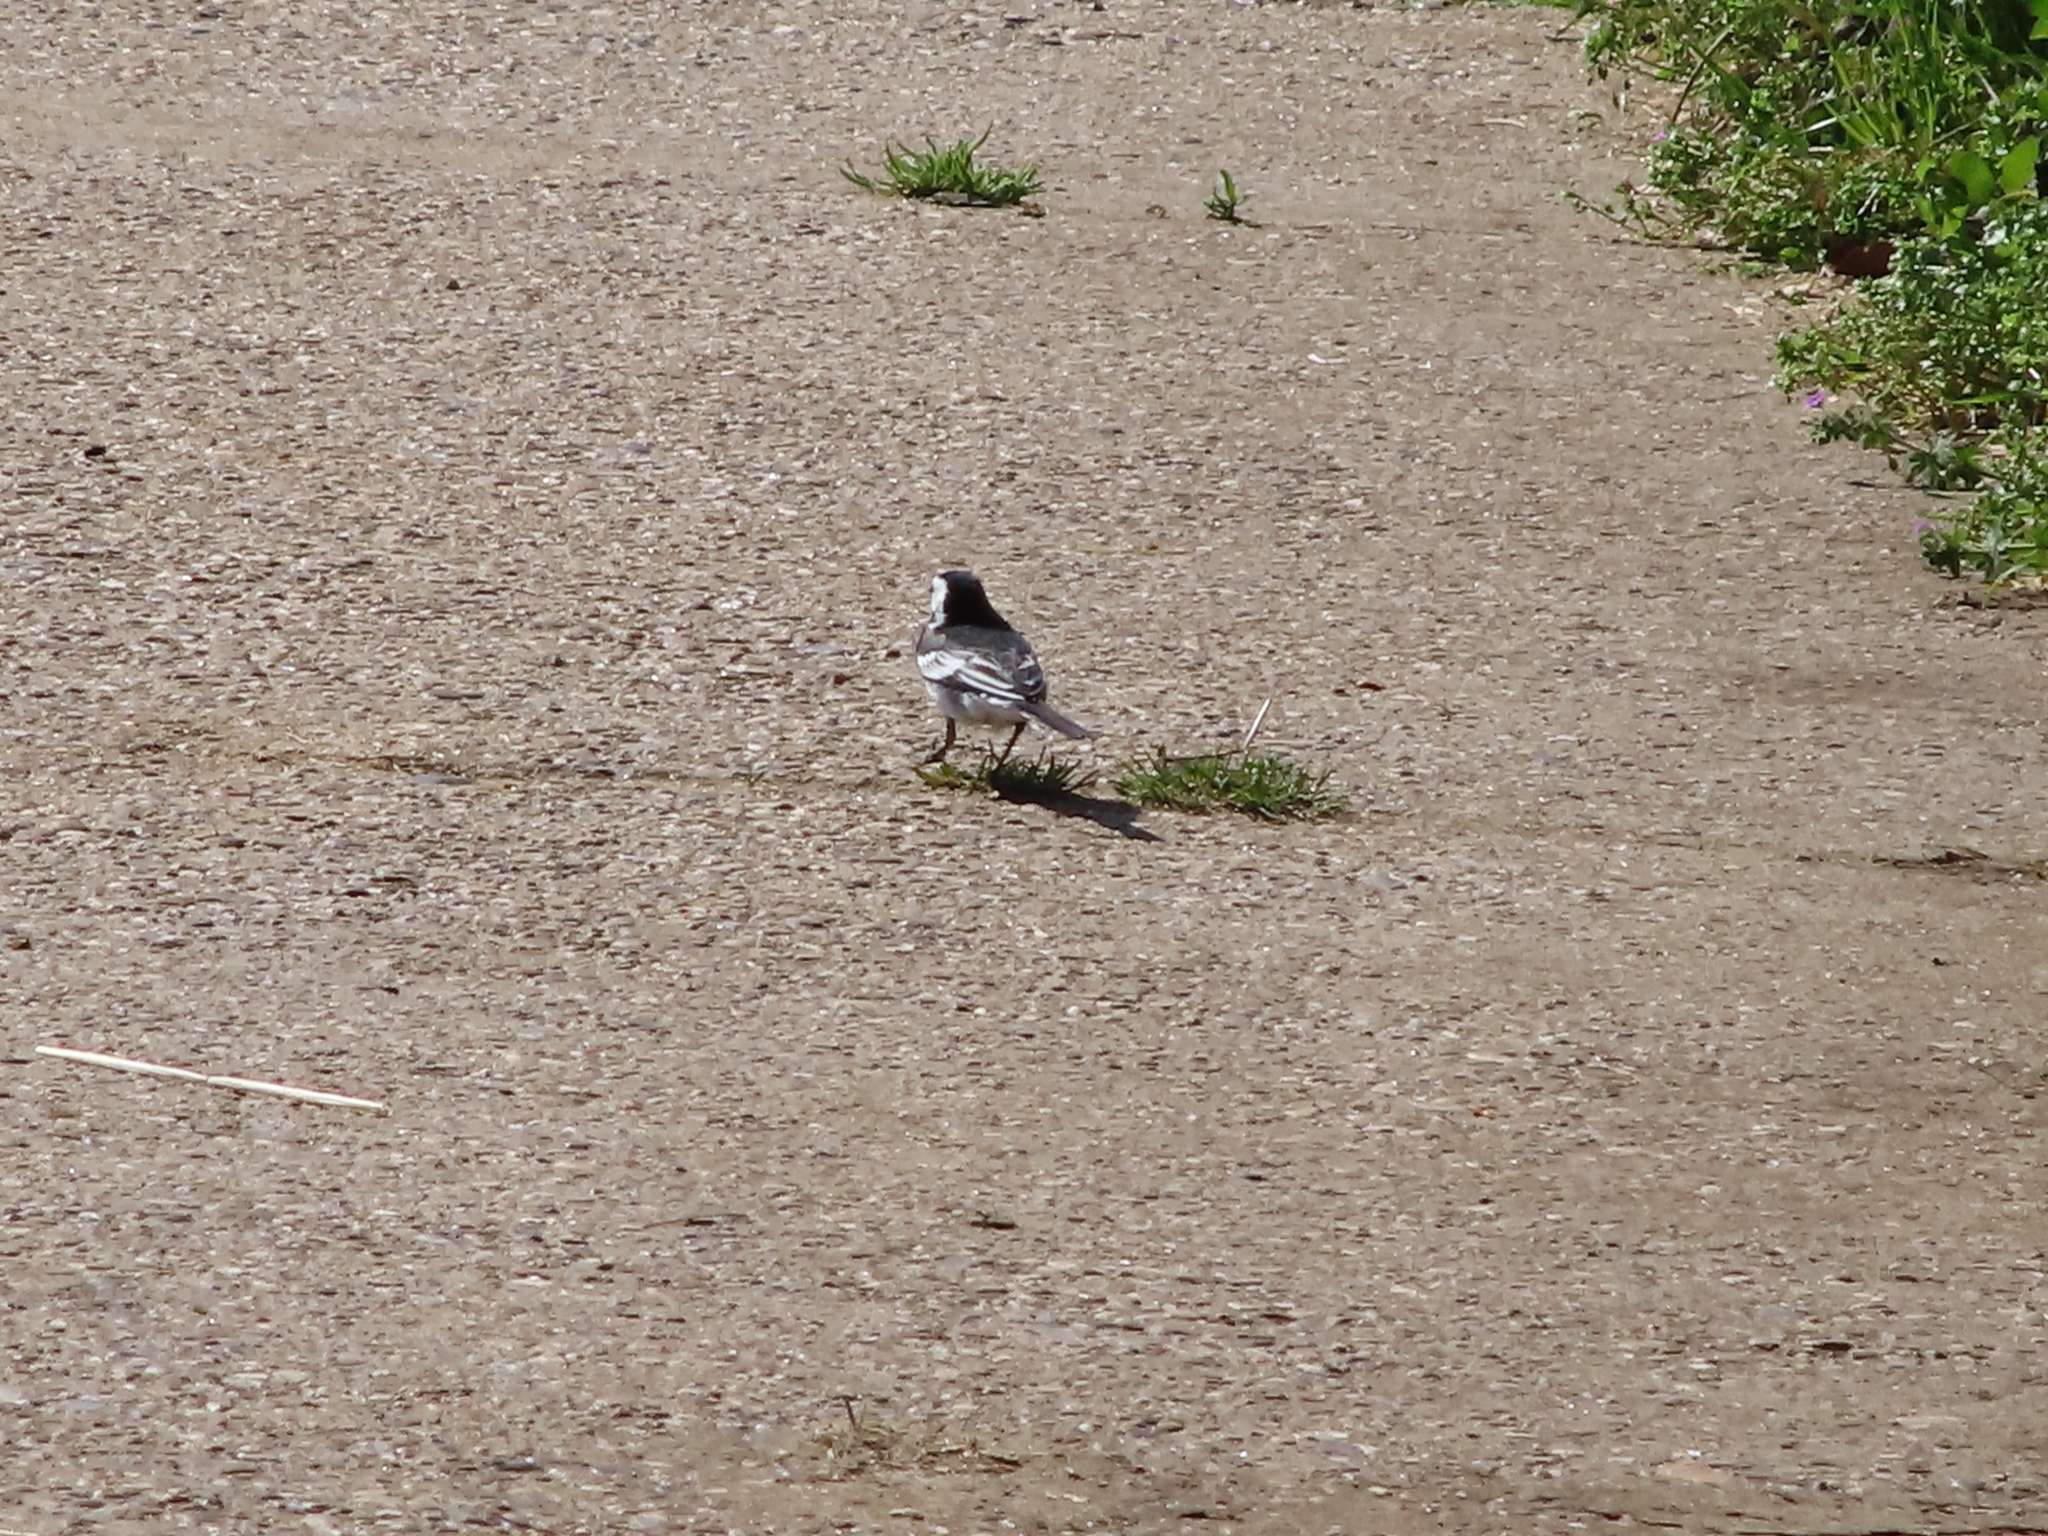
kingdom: Animalia
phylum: Chordata
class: Aves
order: Passeriformes
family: Motacillidae
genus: Motacilla
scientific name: Motacilla alba
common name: White wagtail
